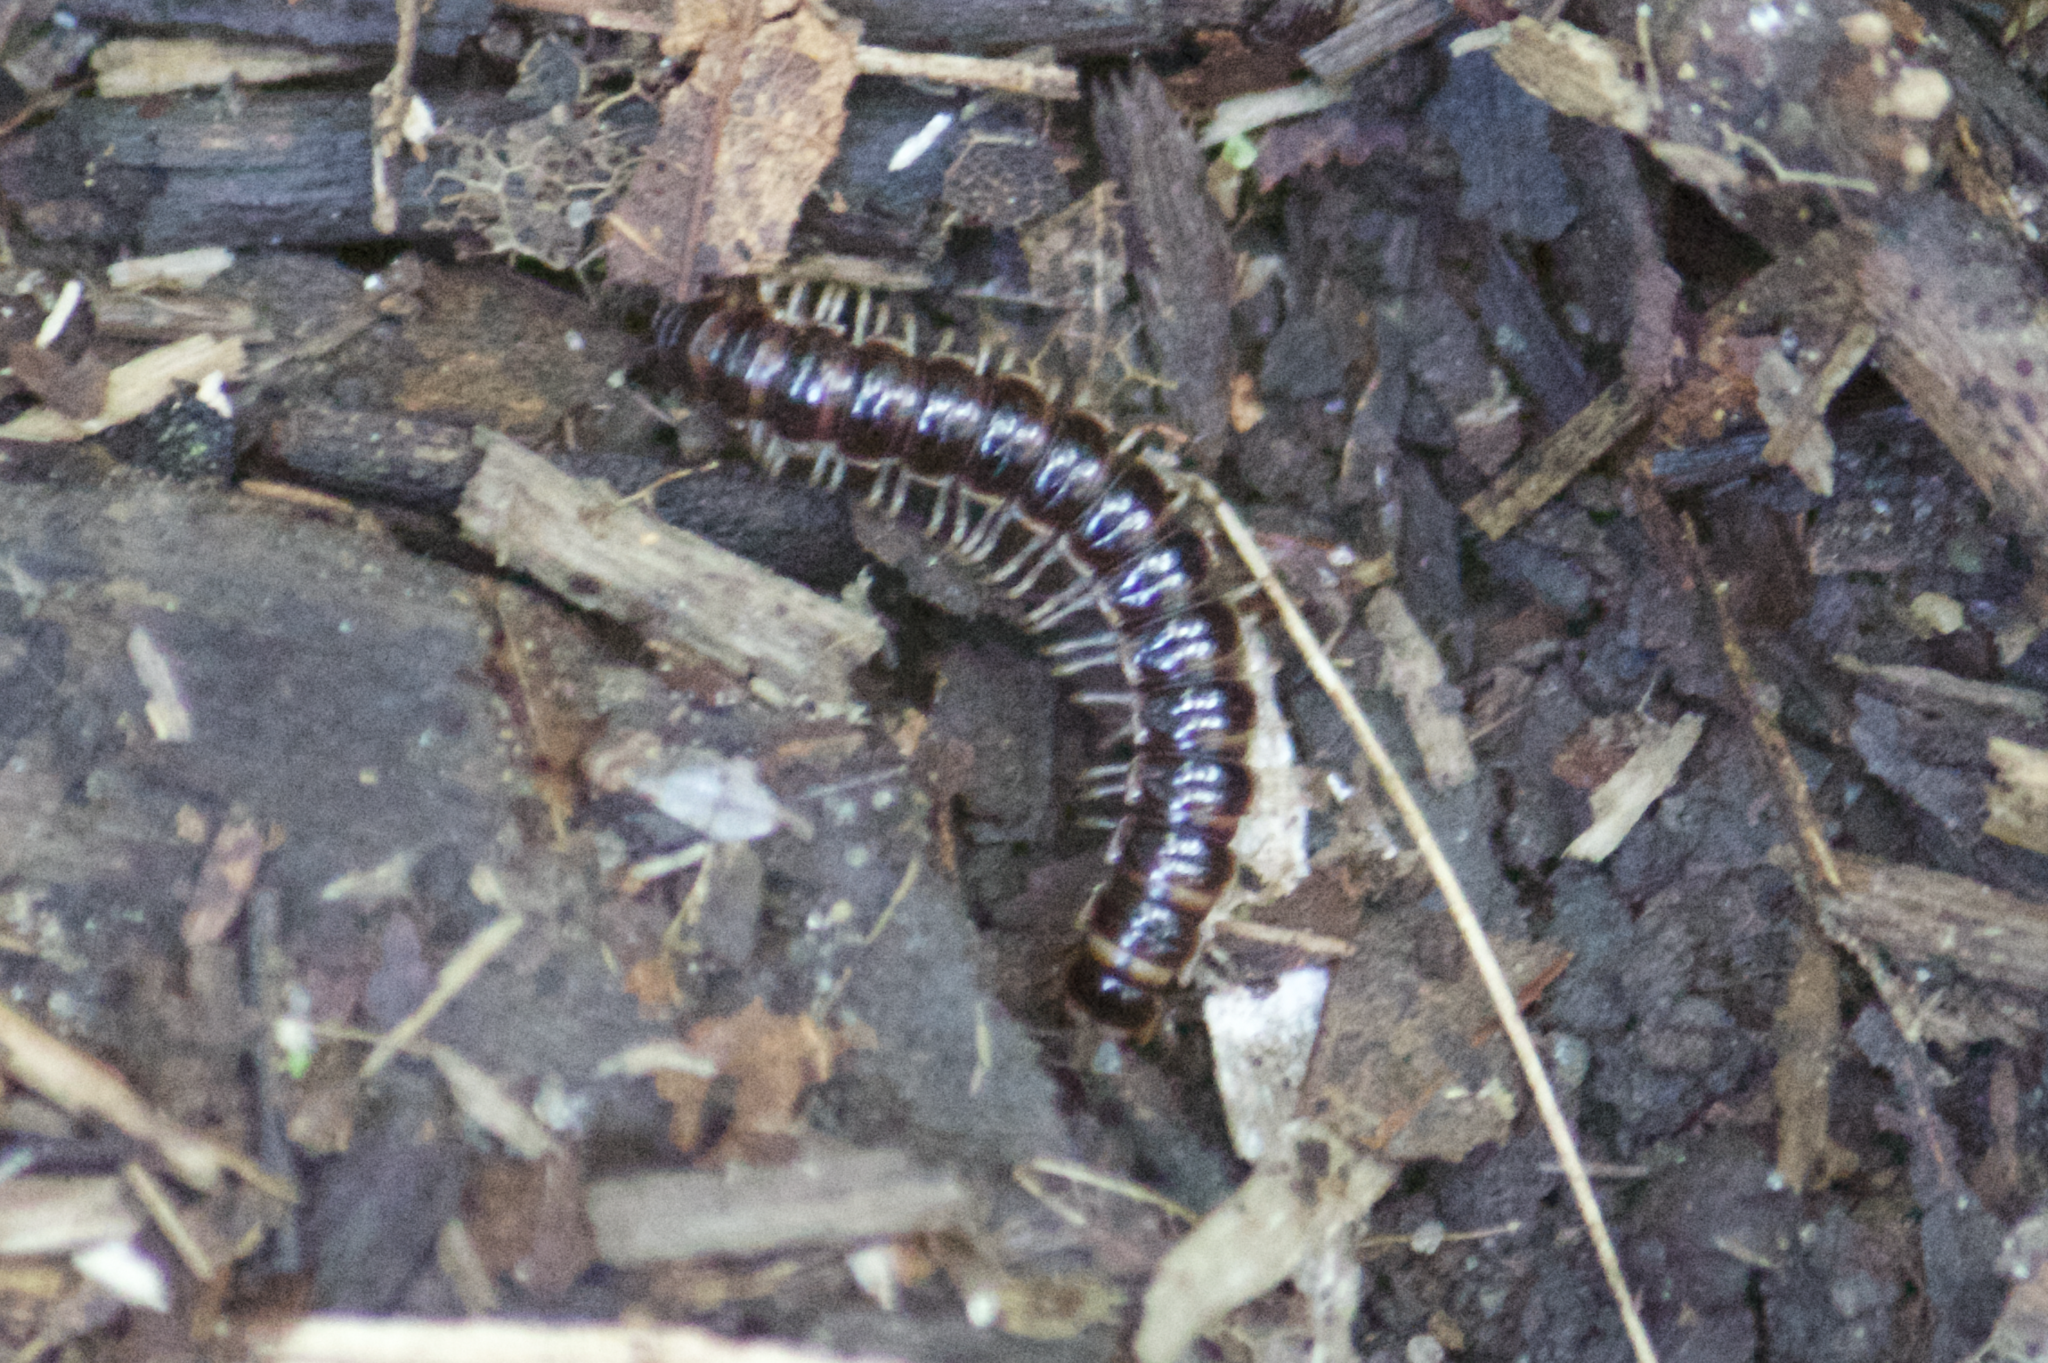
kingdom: Animalia
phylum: Arthropoda
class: Diplopoda
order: Polydesmida
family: Paradoxosomatidae
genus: Oxidus
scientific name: Oxidus gracilis
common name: Greenhouse millipede
